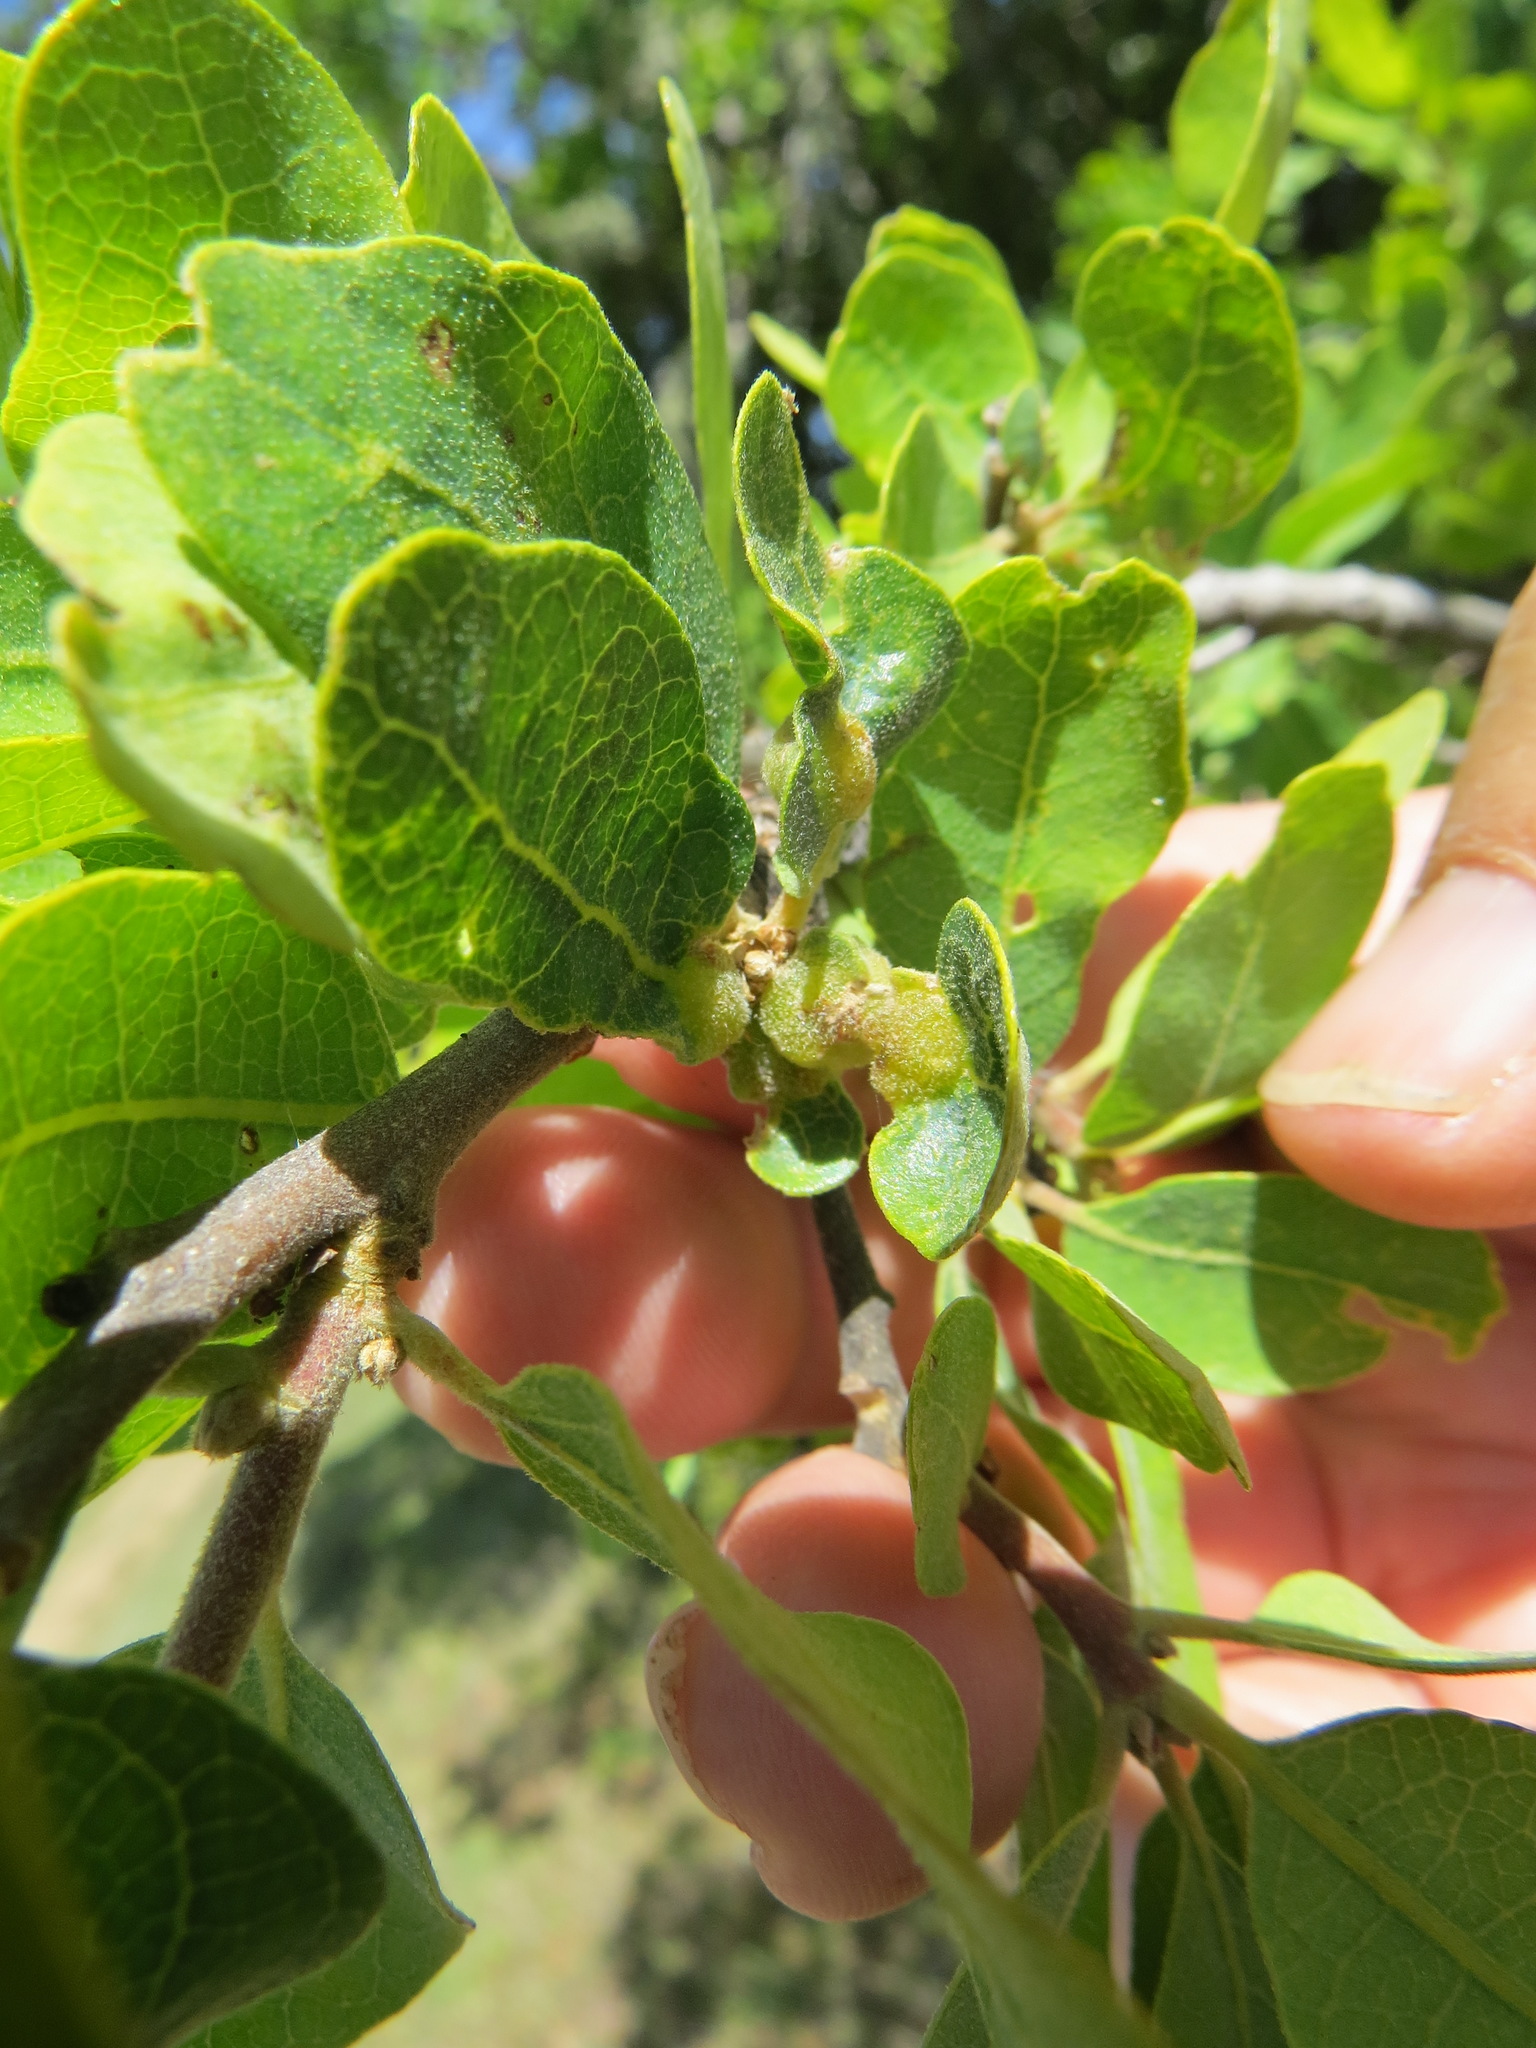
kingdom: Animalia
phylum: Arthropoda
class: Insecta
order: Hymenoptera
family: Cynipidae
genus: Neuroterus
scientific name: Neuroterus
